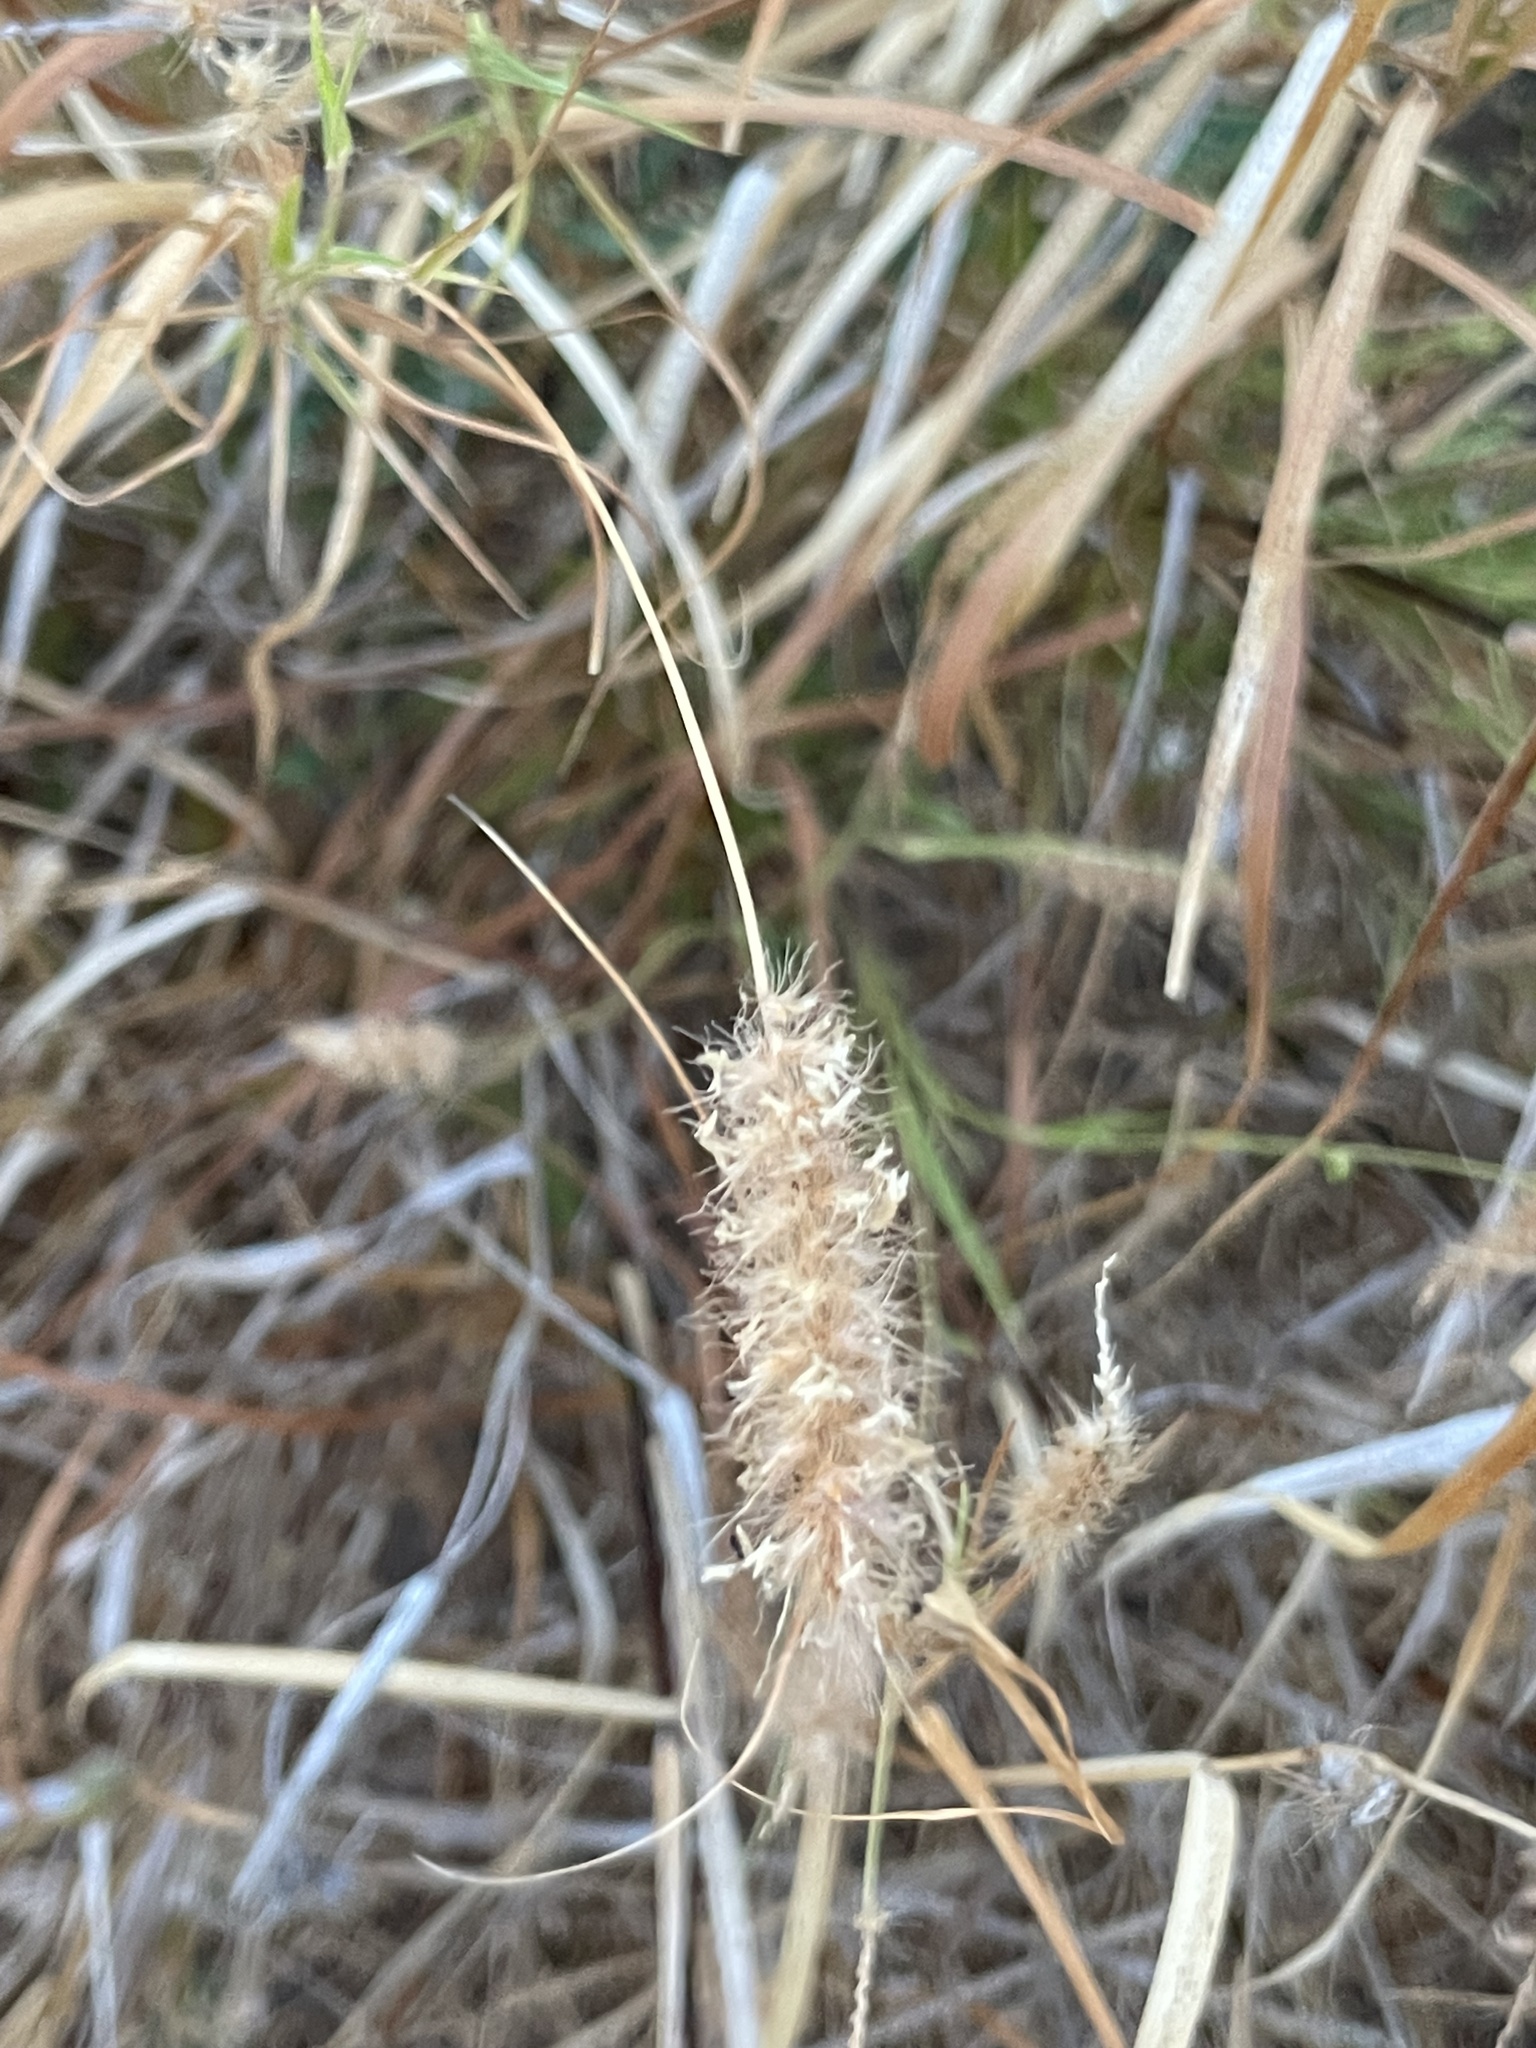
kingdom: Plantae
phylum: Tracheophyta
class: Liliopsida
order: Poales
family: Poaceae
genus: Cenchrus
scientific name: Cenchrus ciliaris
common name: Buffelgrass
